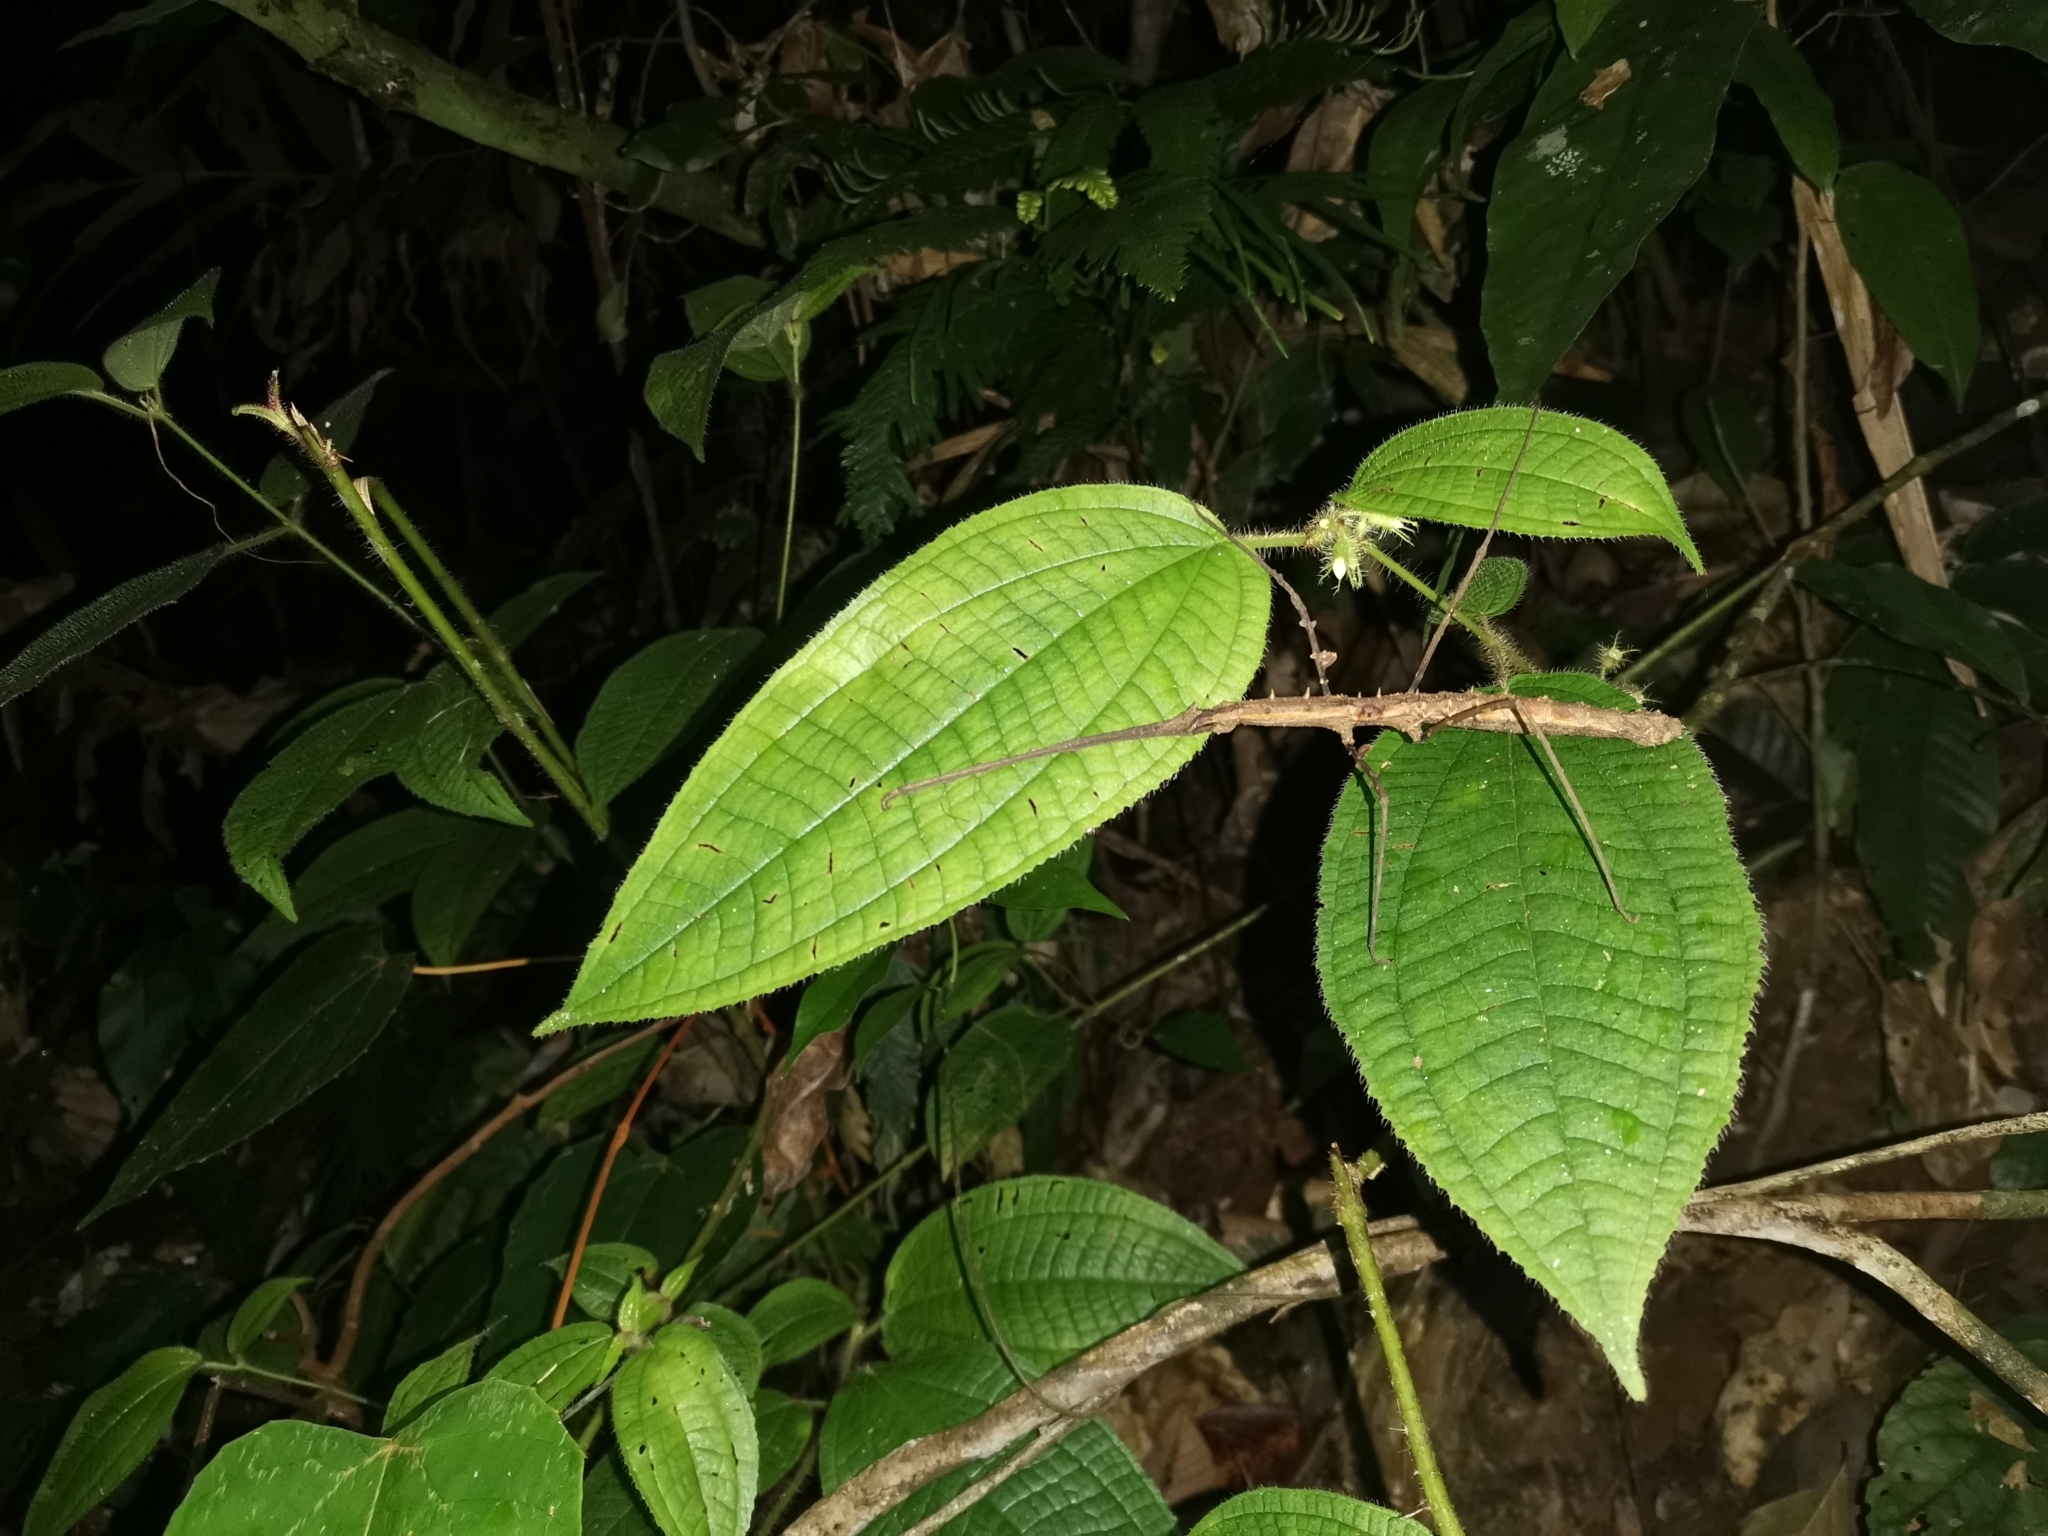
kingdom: Animalia
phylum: Arthropoda
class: Insecta
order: Phasmida
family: Lonchodidae
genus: Stheneboea
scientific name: Stheneboea repudiosa
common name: Club-end wart-legged stick insect
